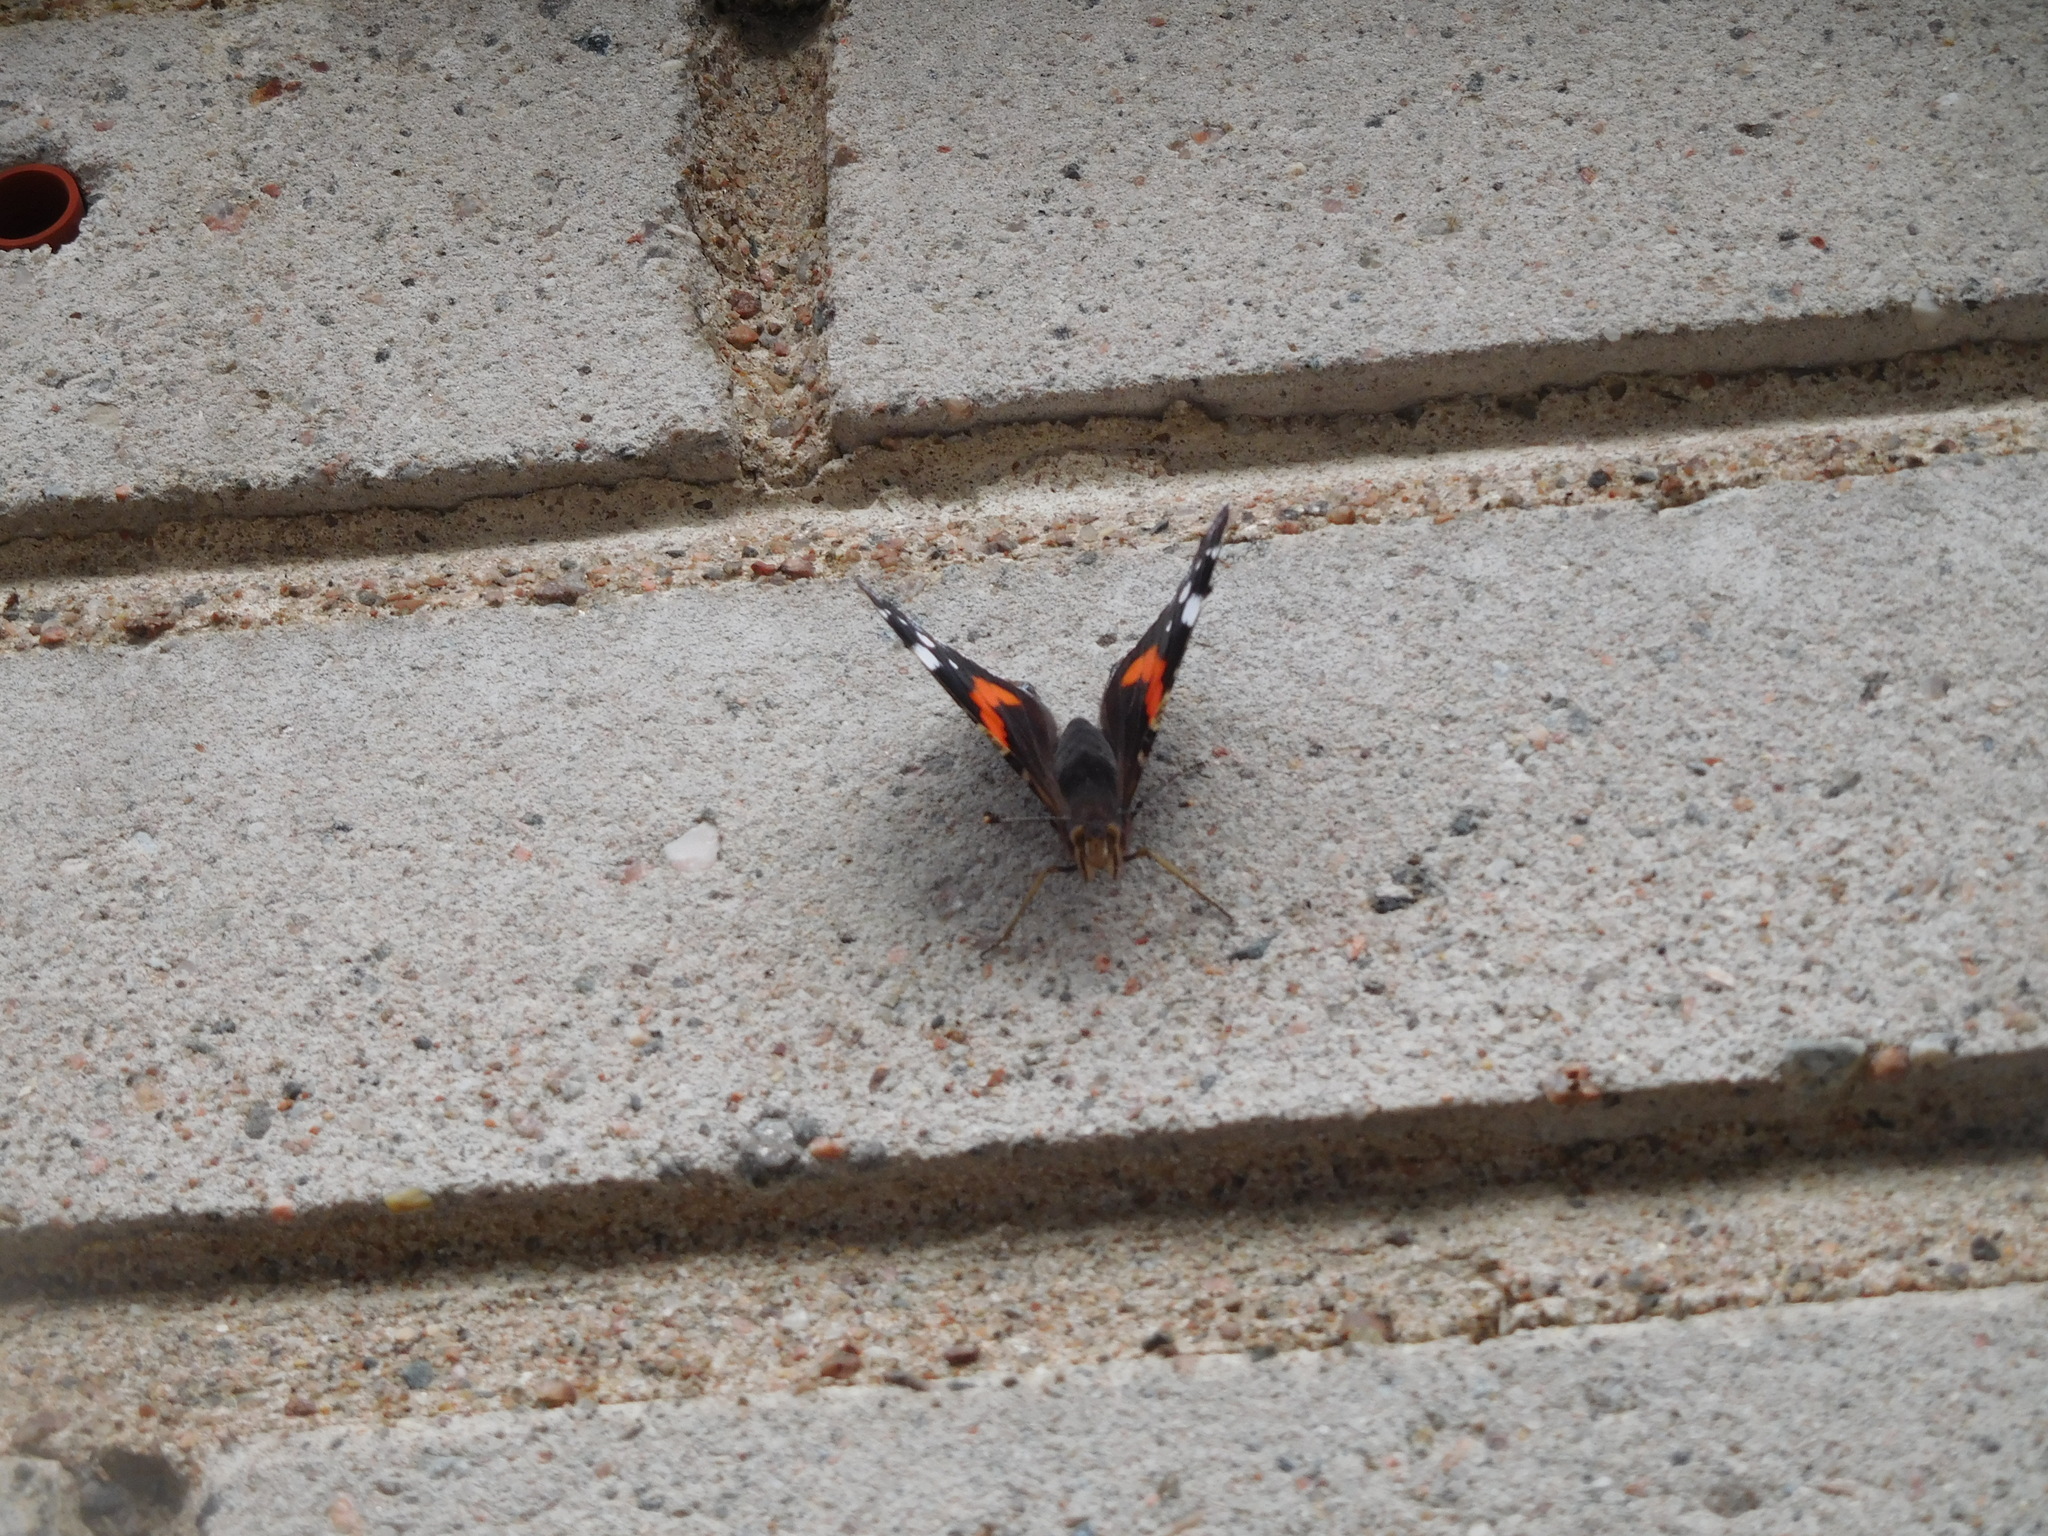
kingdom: Animalia
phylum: Arthropoda
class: Insecta
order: Lepidoptera
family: Nymphalidae
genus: Vanessa
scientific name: Vanessa atalanta
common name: Red admiral
